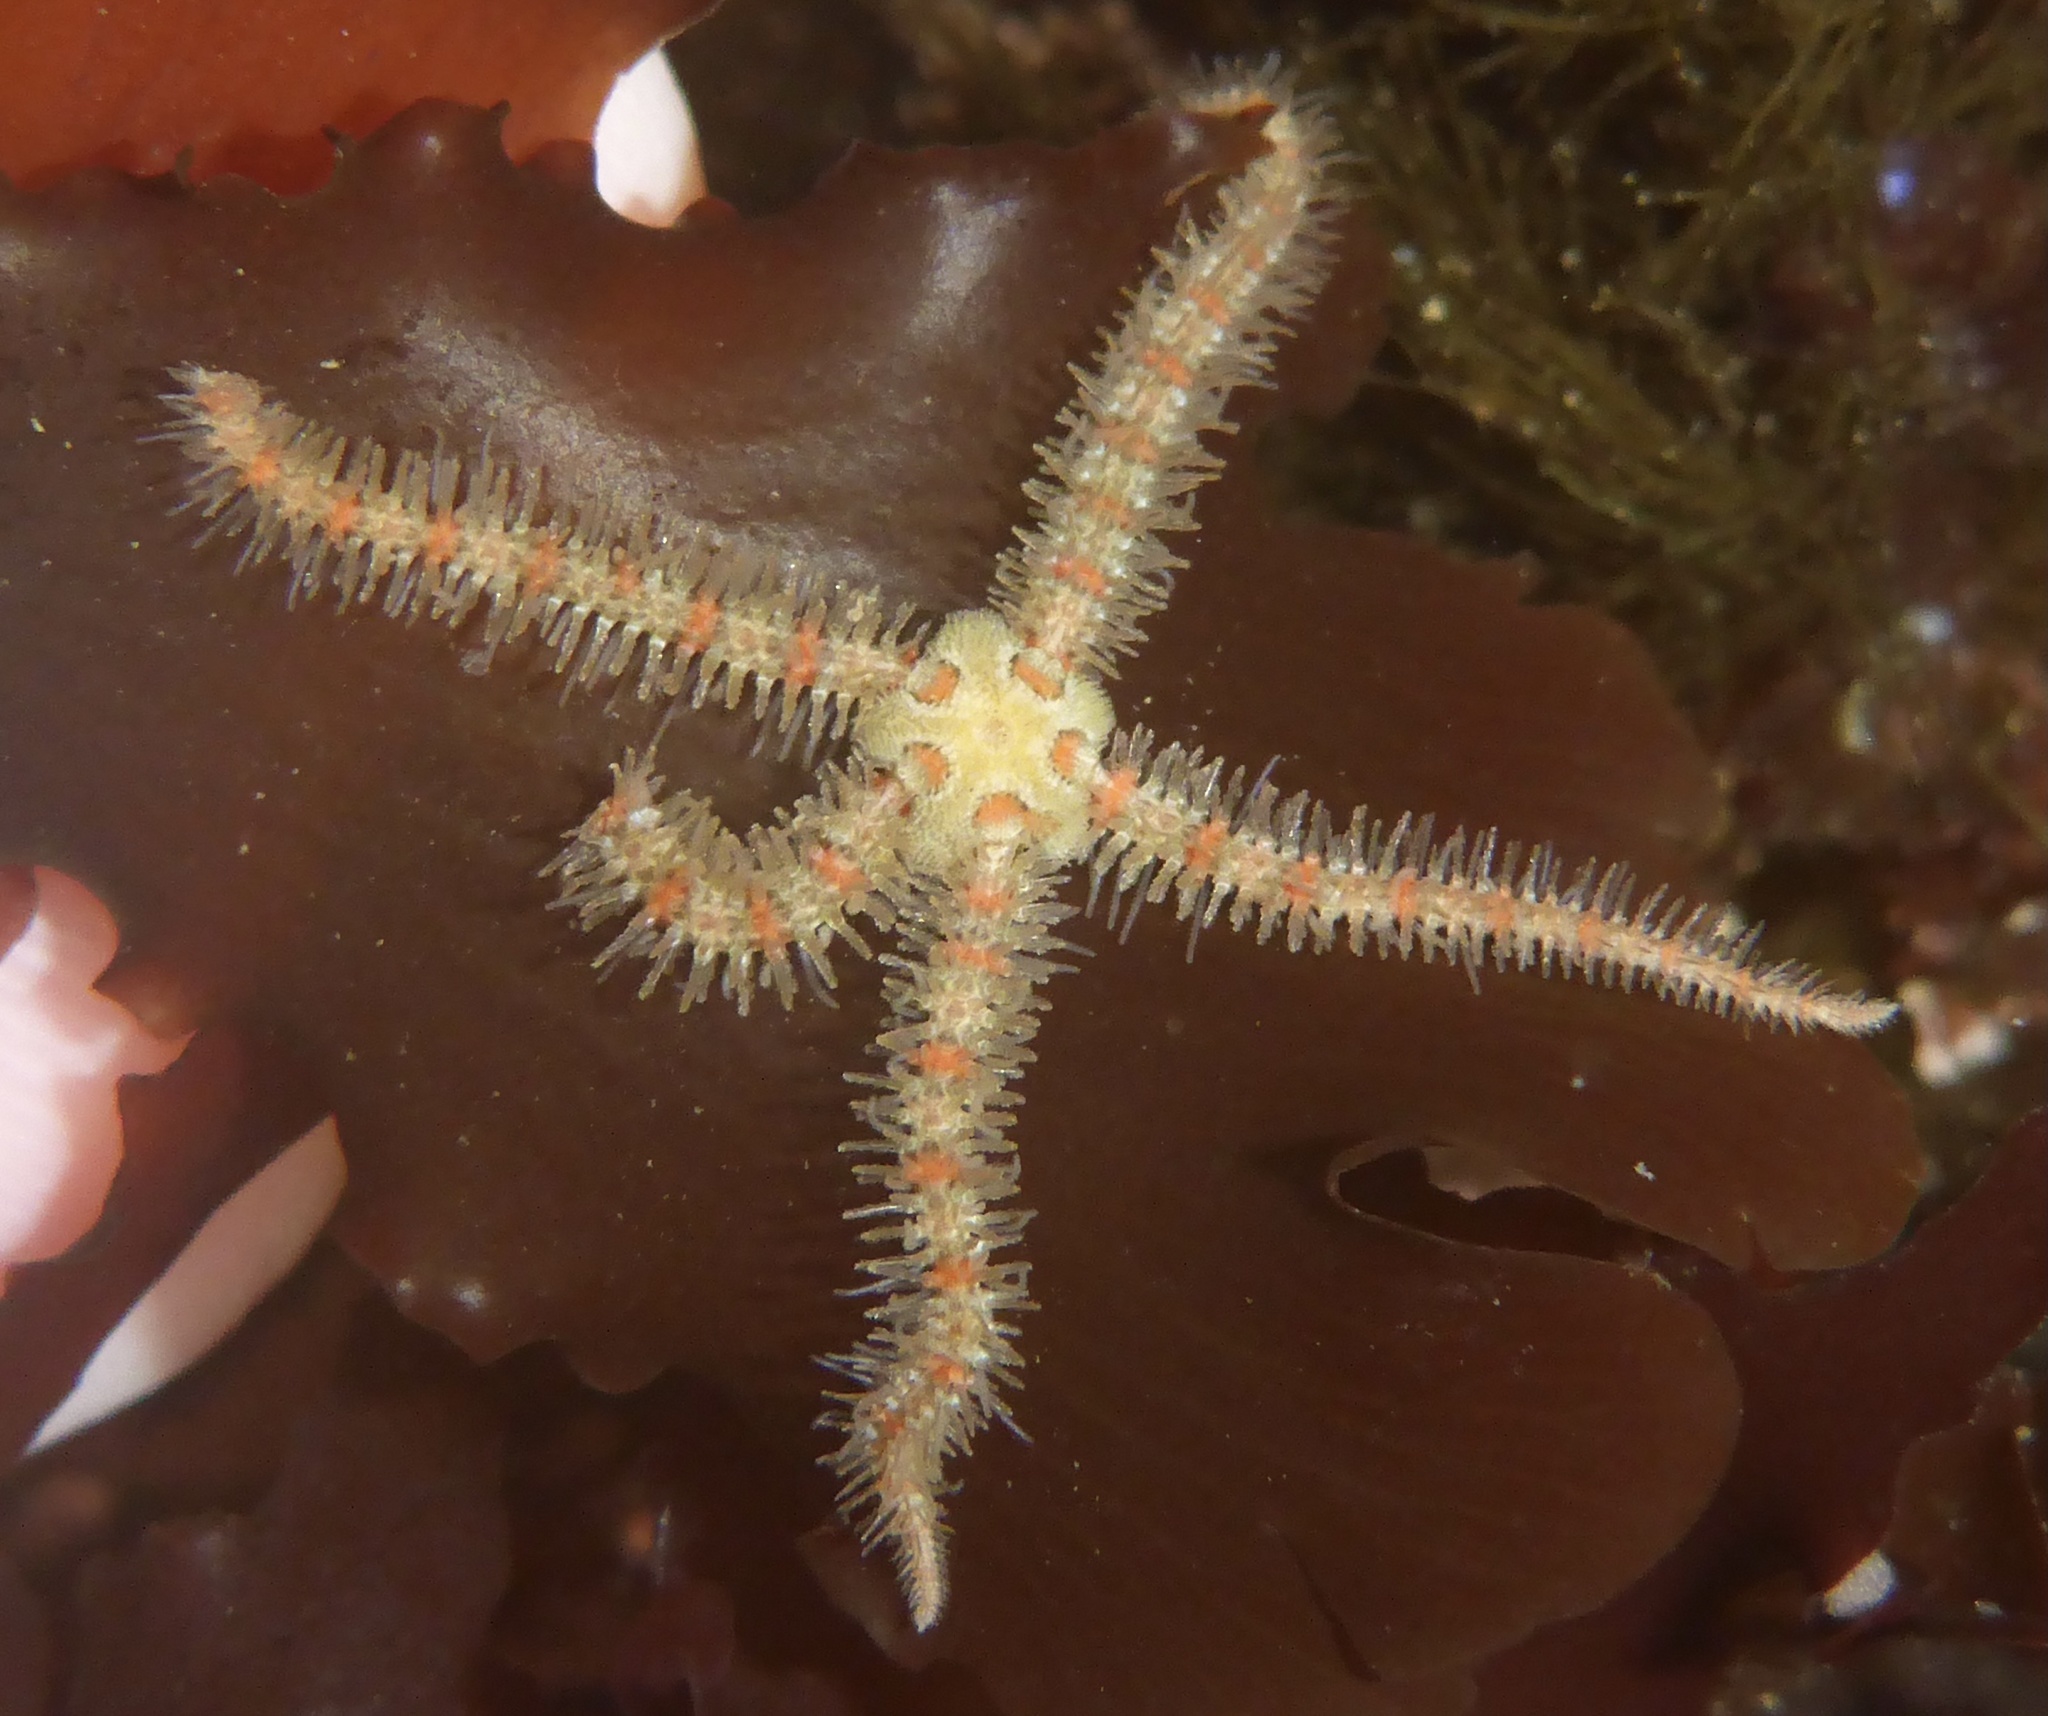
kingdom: Animalia
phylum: Echinodermata
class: Ophiuroidea
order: Amphilepidida
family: Ophiotrichidae
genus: Ophiothrix
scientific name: Ophiothrix spiculata
